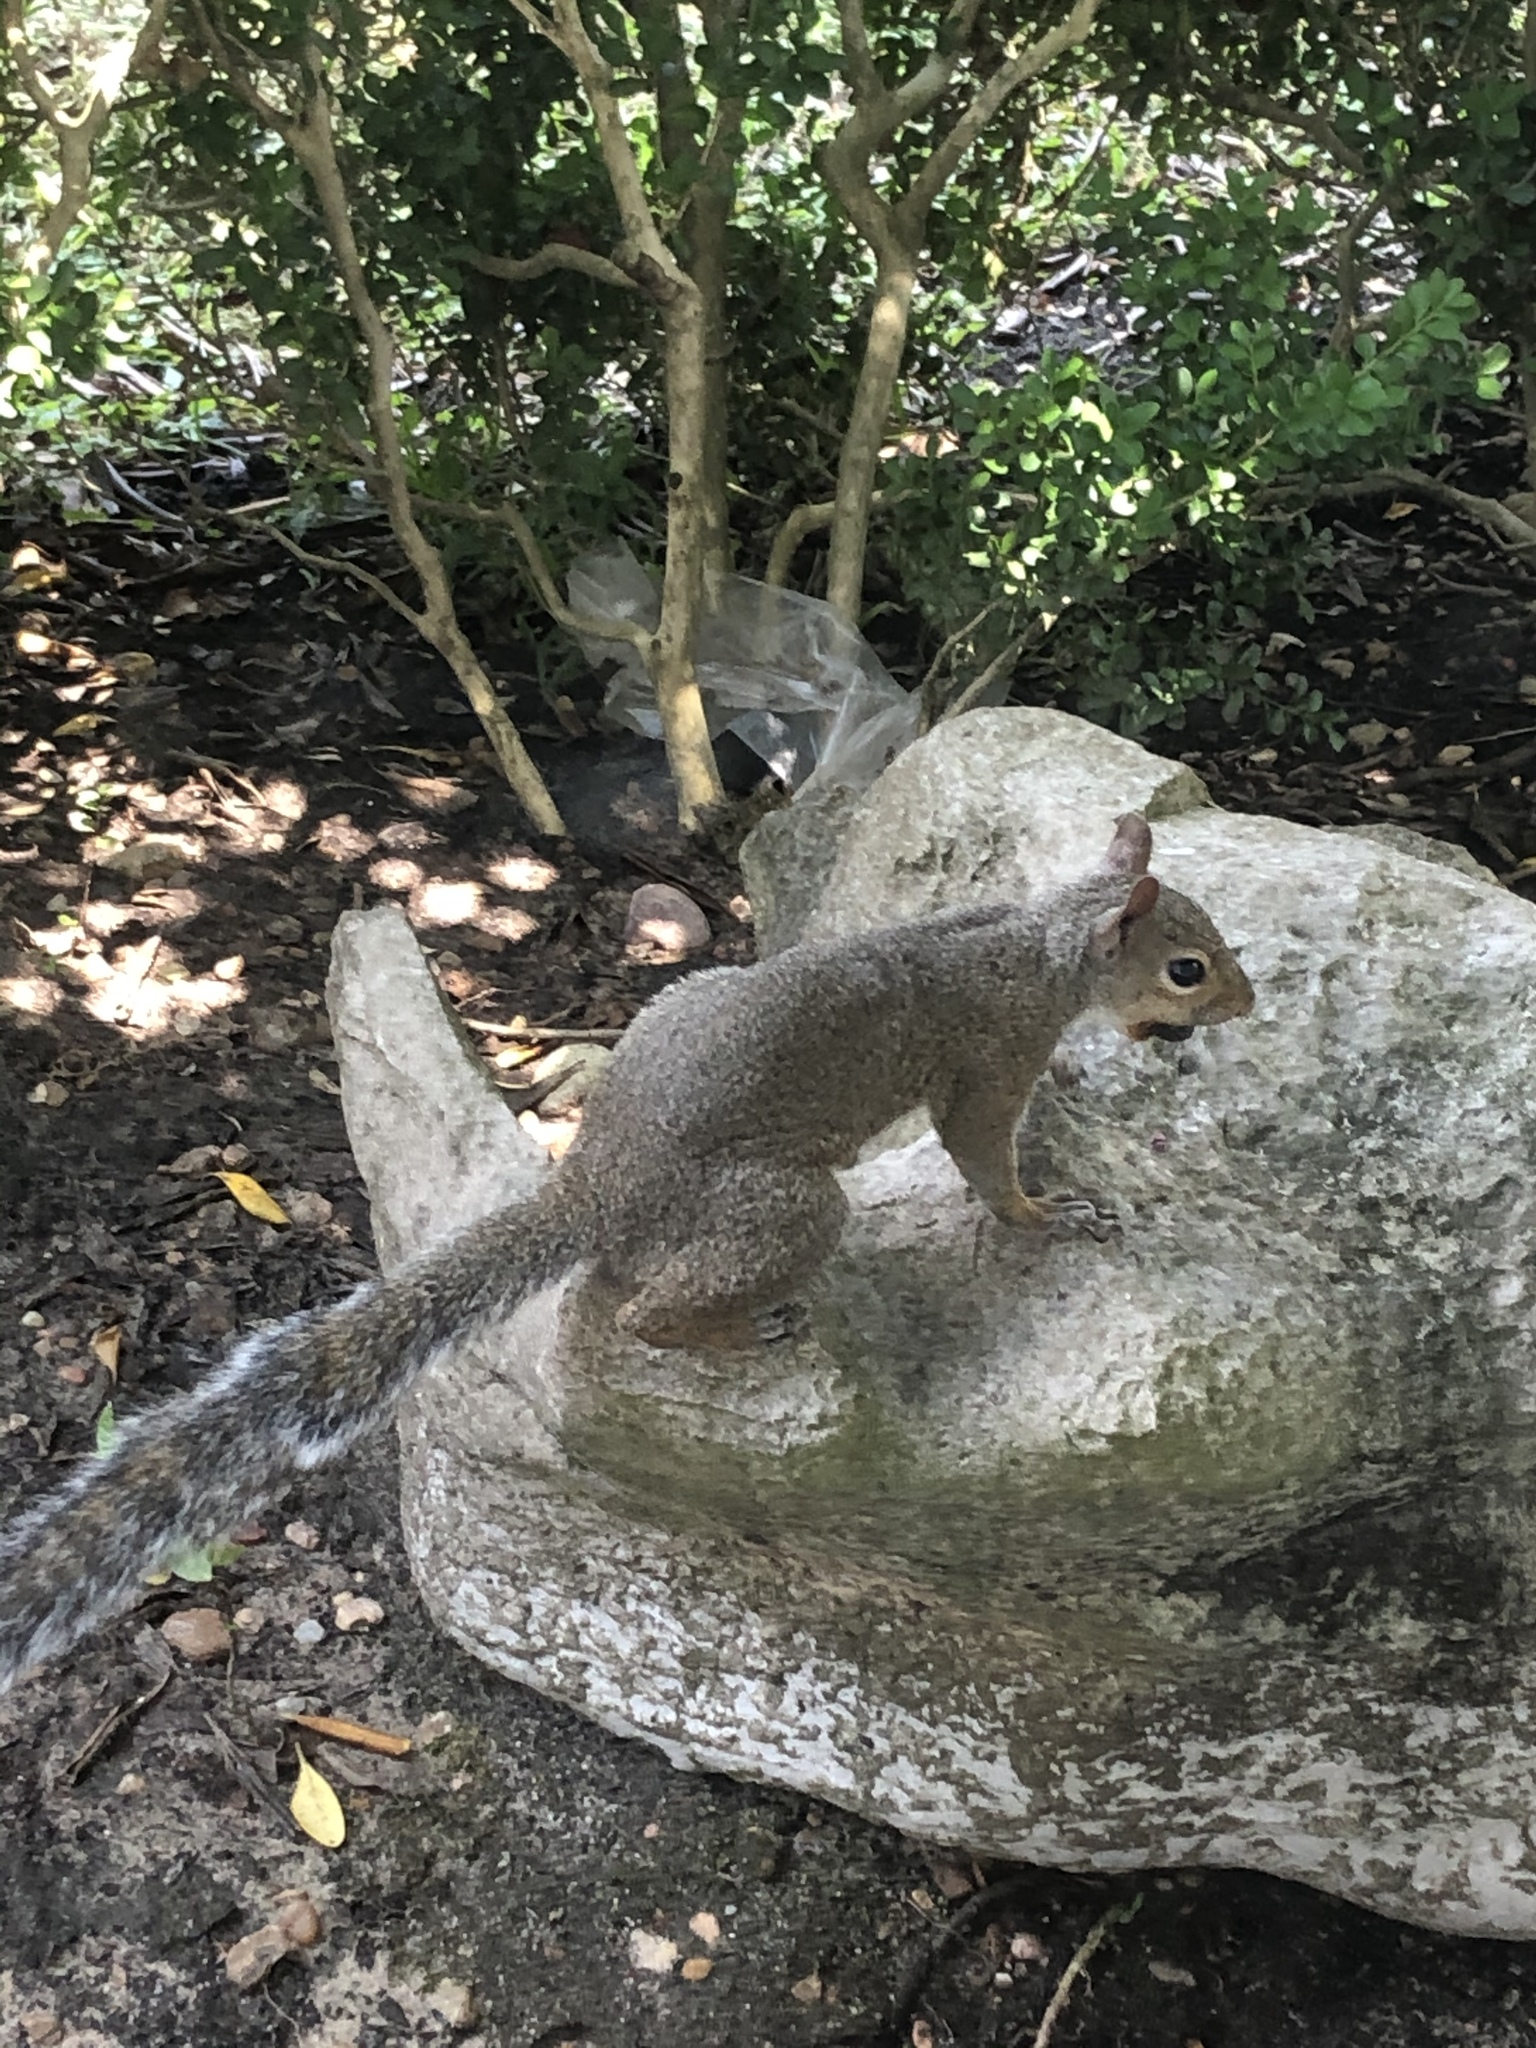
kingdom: Animalia
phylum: Chordata
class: Mammalia
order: Rodentia
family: Sciuridae
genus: Sciurus
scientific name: Sciurus carolinensis
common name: Eastern gray squirrel
